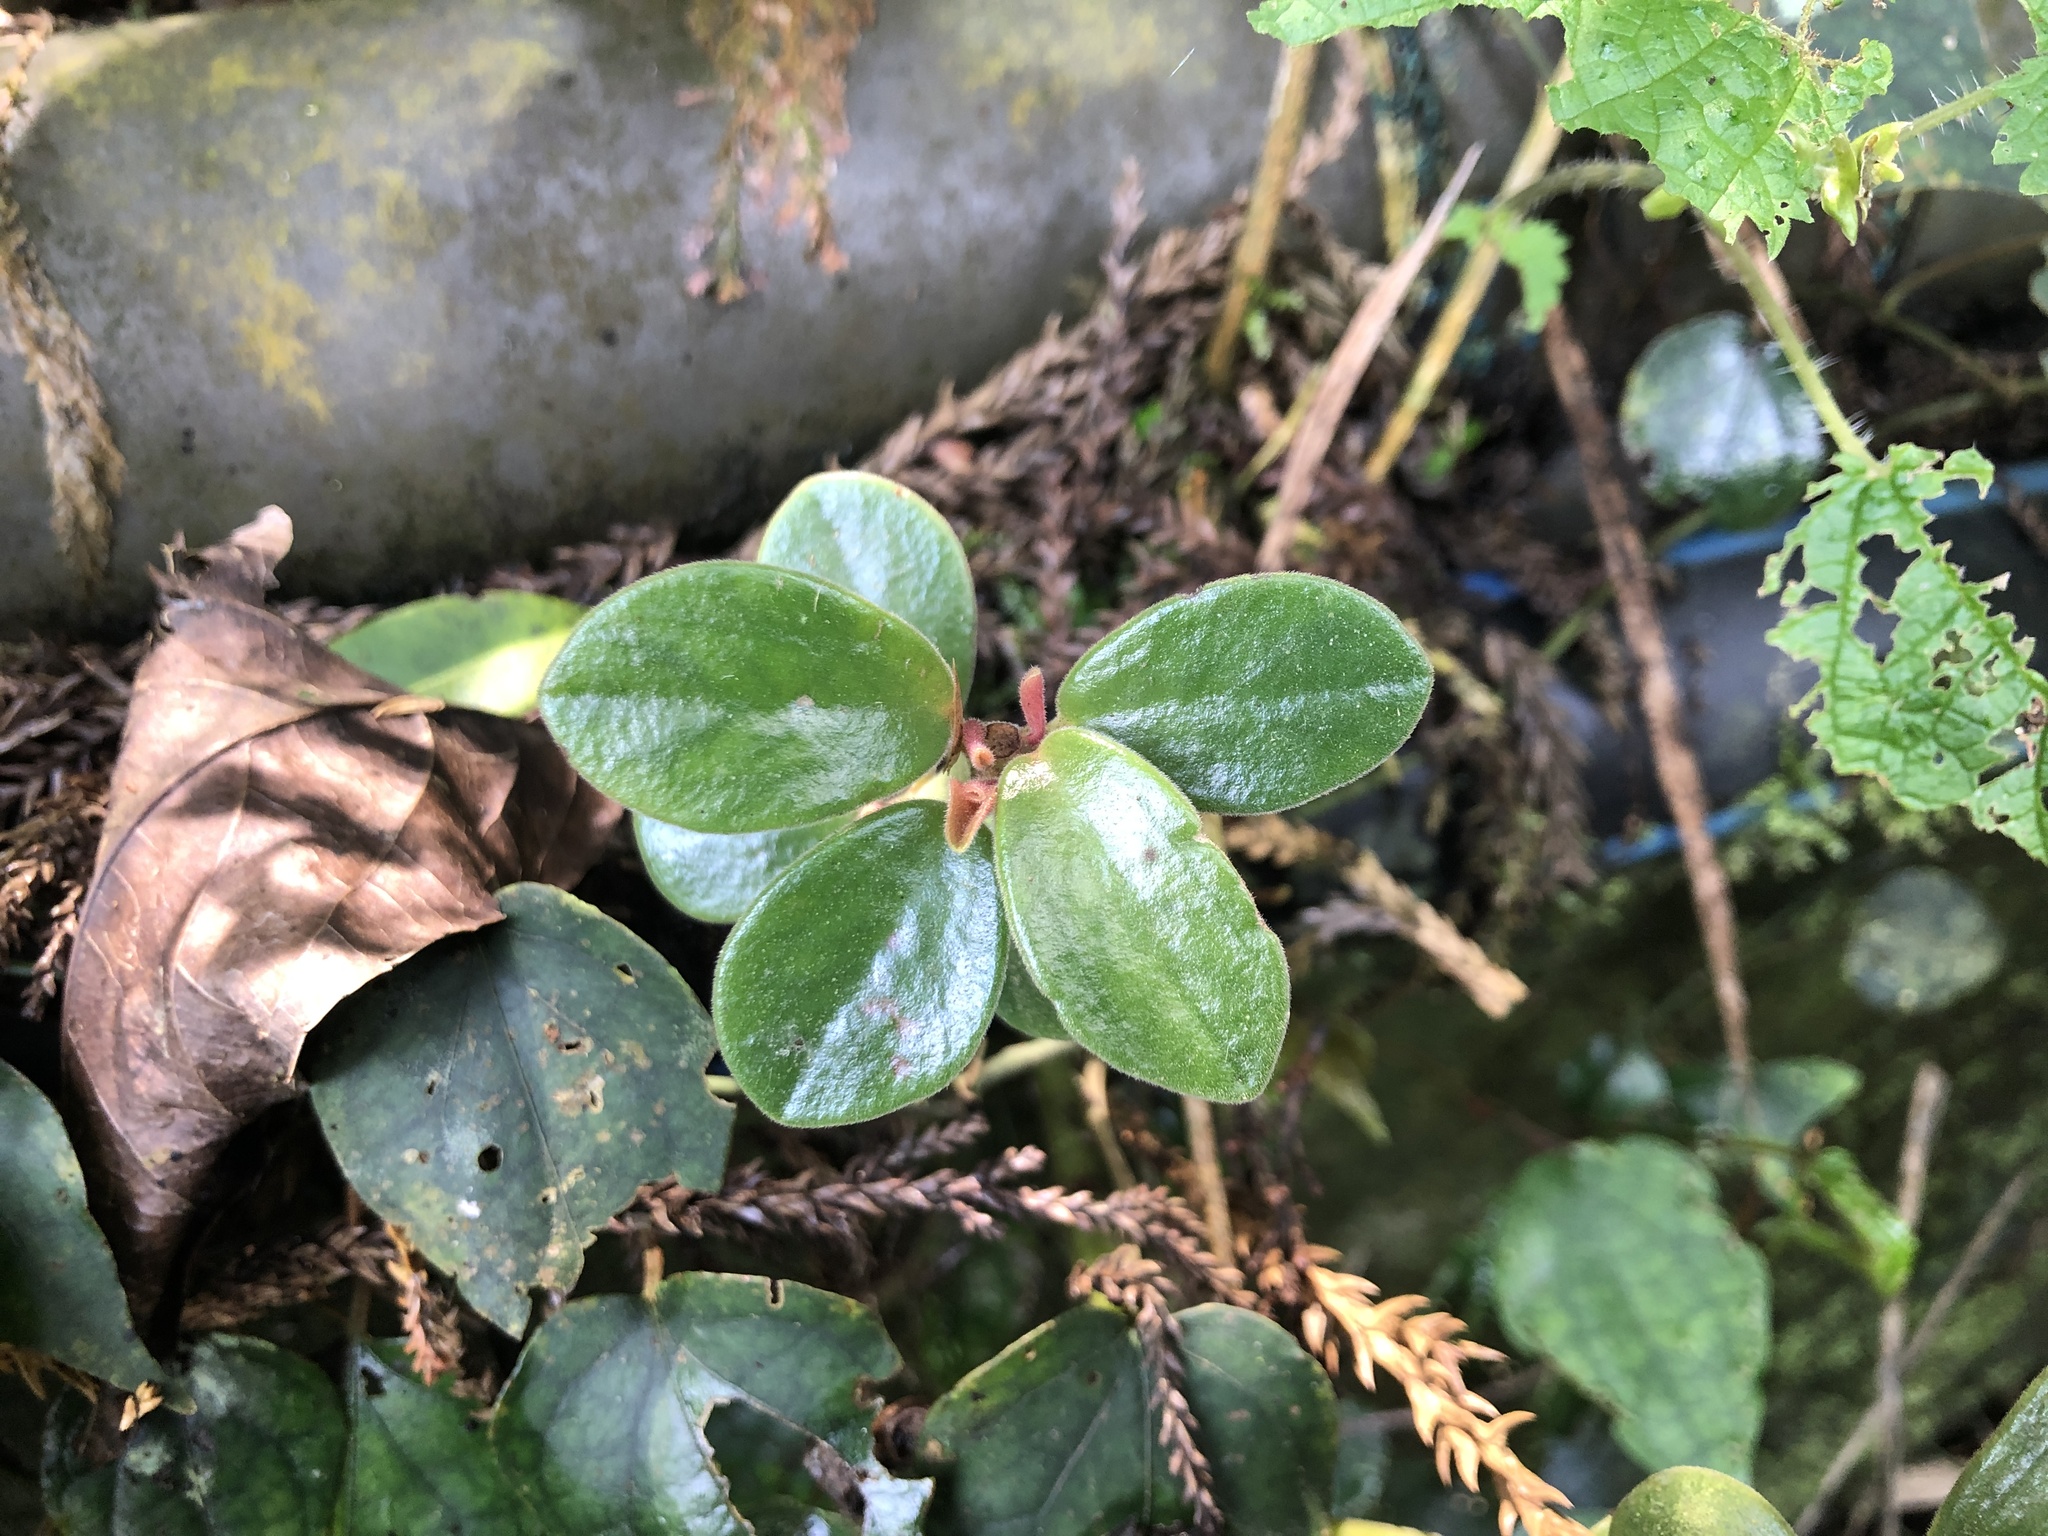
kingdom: Plantae
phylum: Tracheophyta
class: Magnoliopsida
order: Piperales
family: Piperaceae
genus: Peperomia
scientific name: Peperomia japonica
